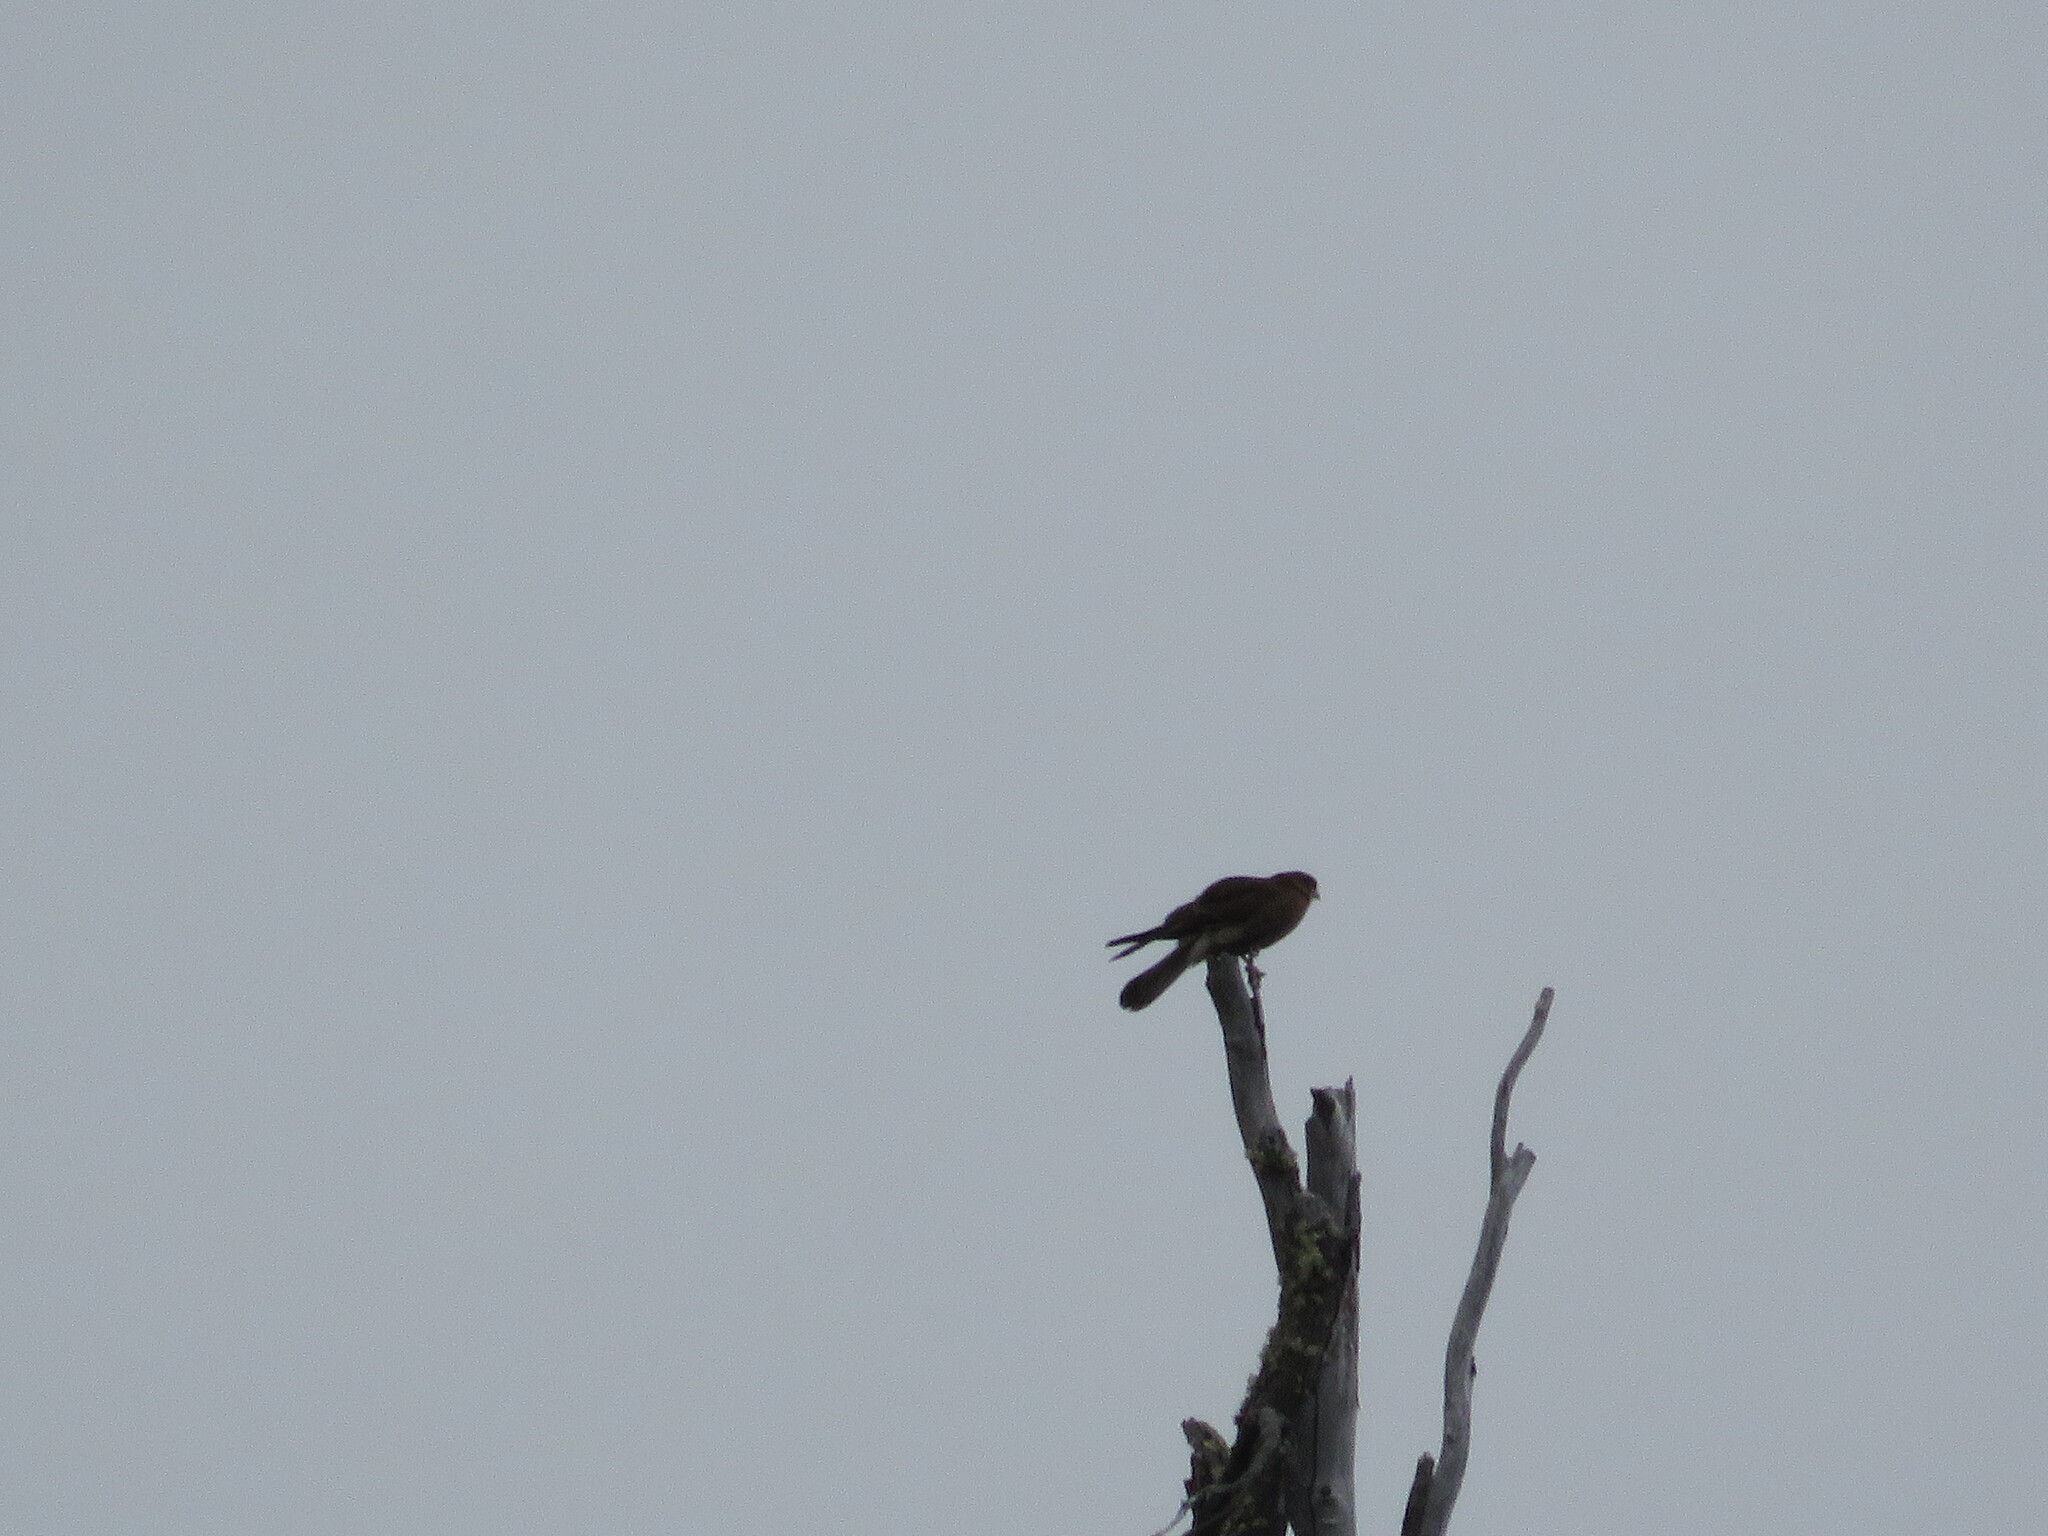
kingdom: Animalia
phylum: Chordata
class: Aves
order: Falconiformes
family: Falconidae
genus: Daptrius
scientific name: Daptrius
